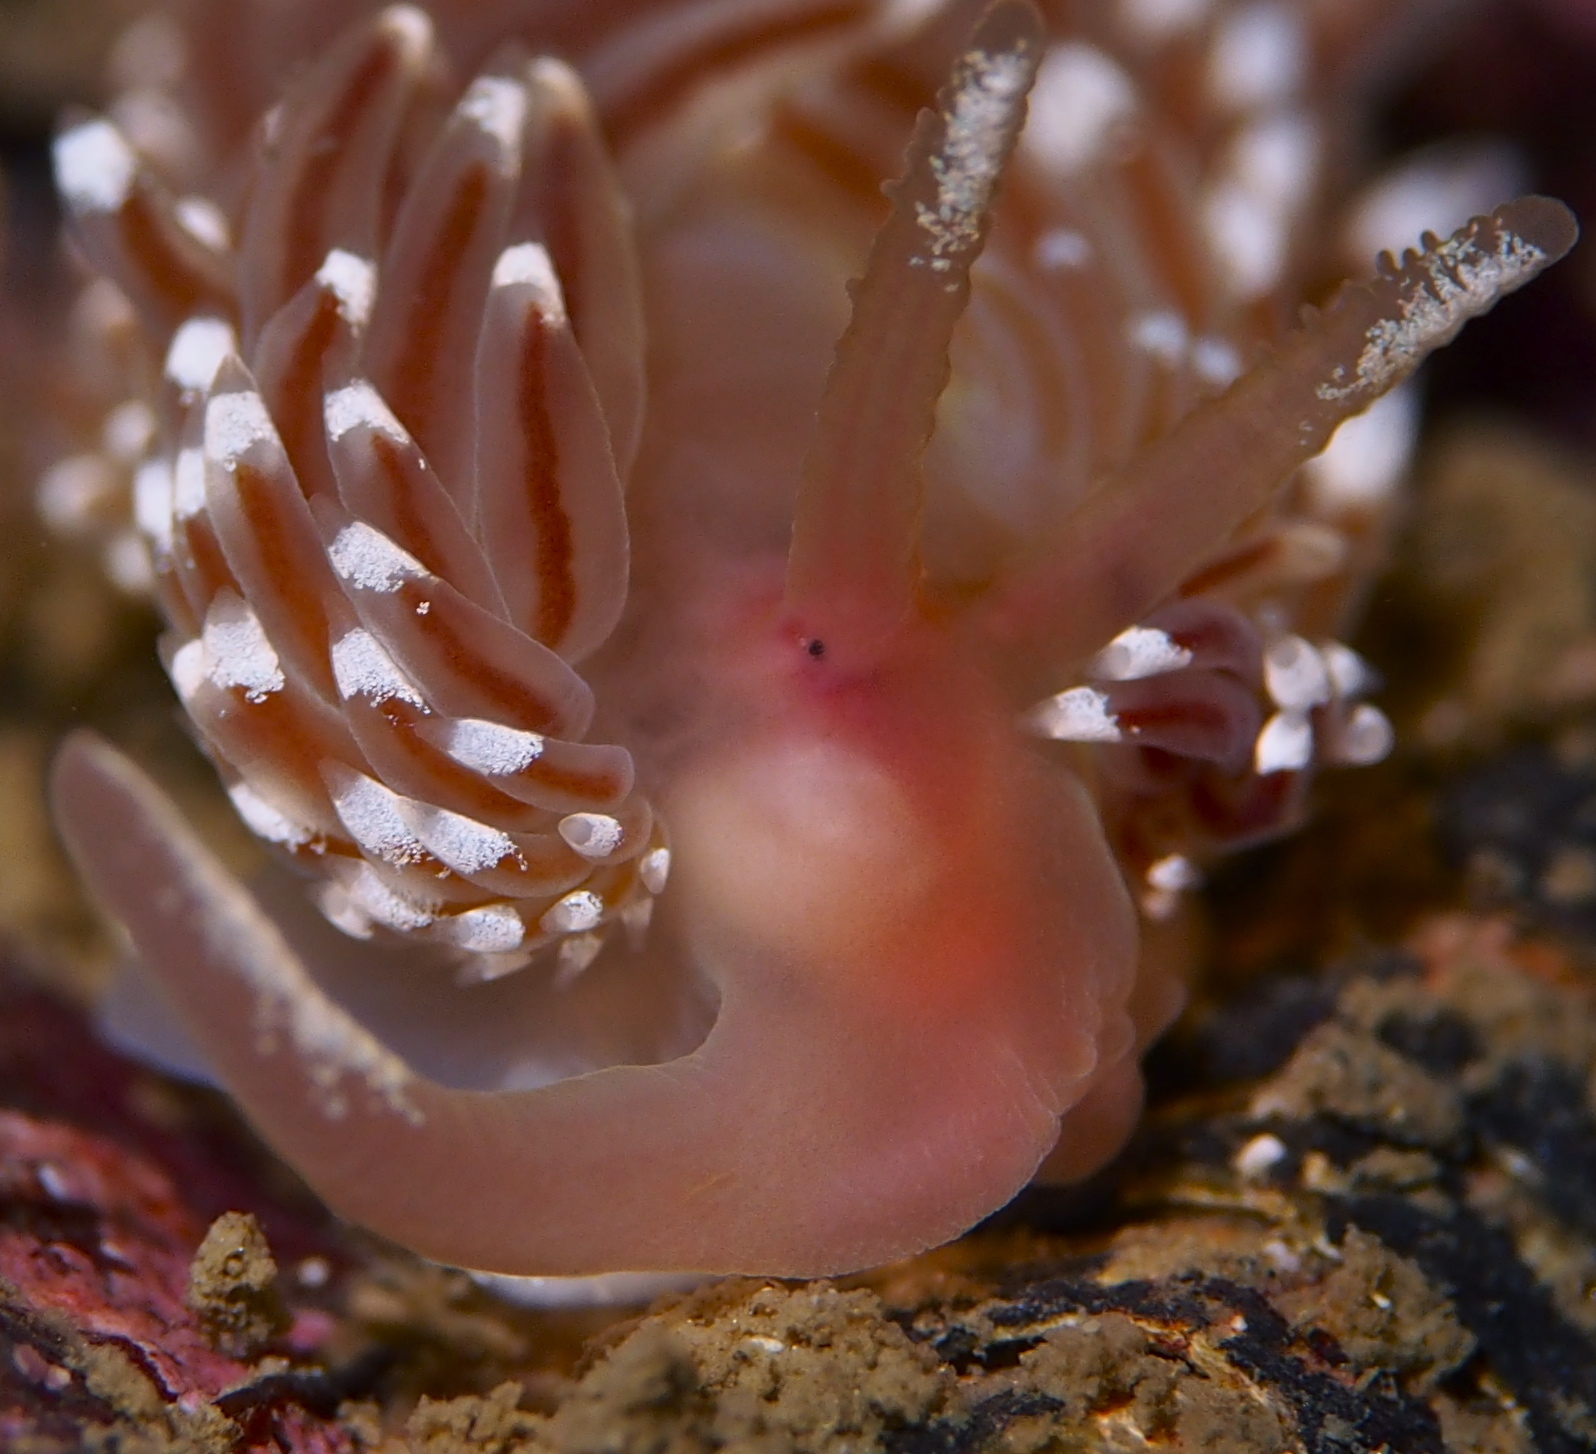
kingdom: Animalia
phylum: Mollusca
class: Gastropoda
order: Nudibranchia
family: Facelinidae
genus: Facelina
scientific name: Facelina bostoniensis
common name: Boston facelina
